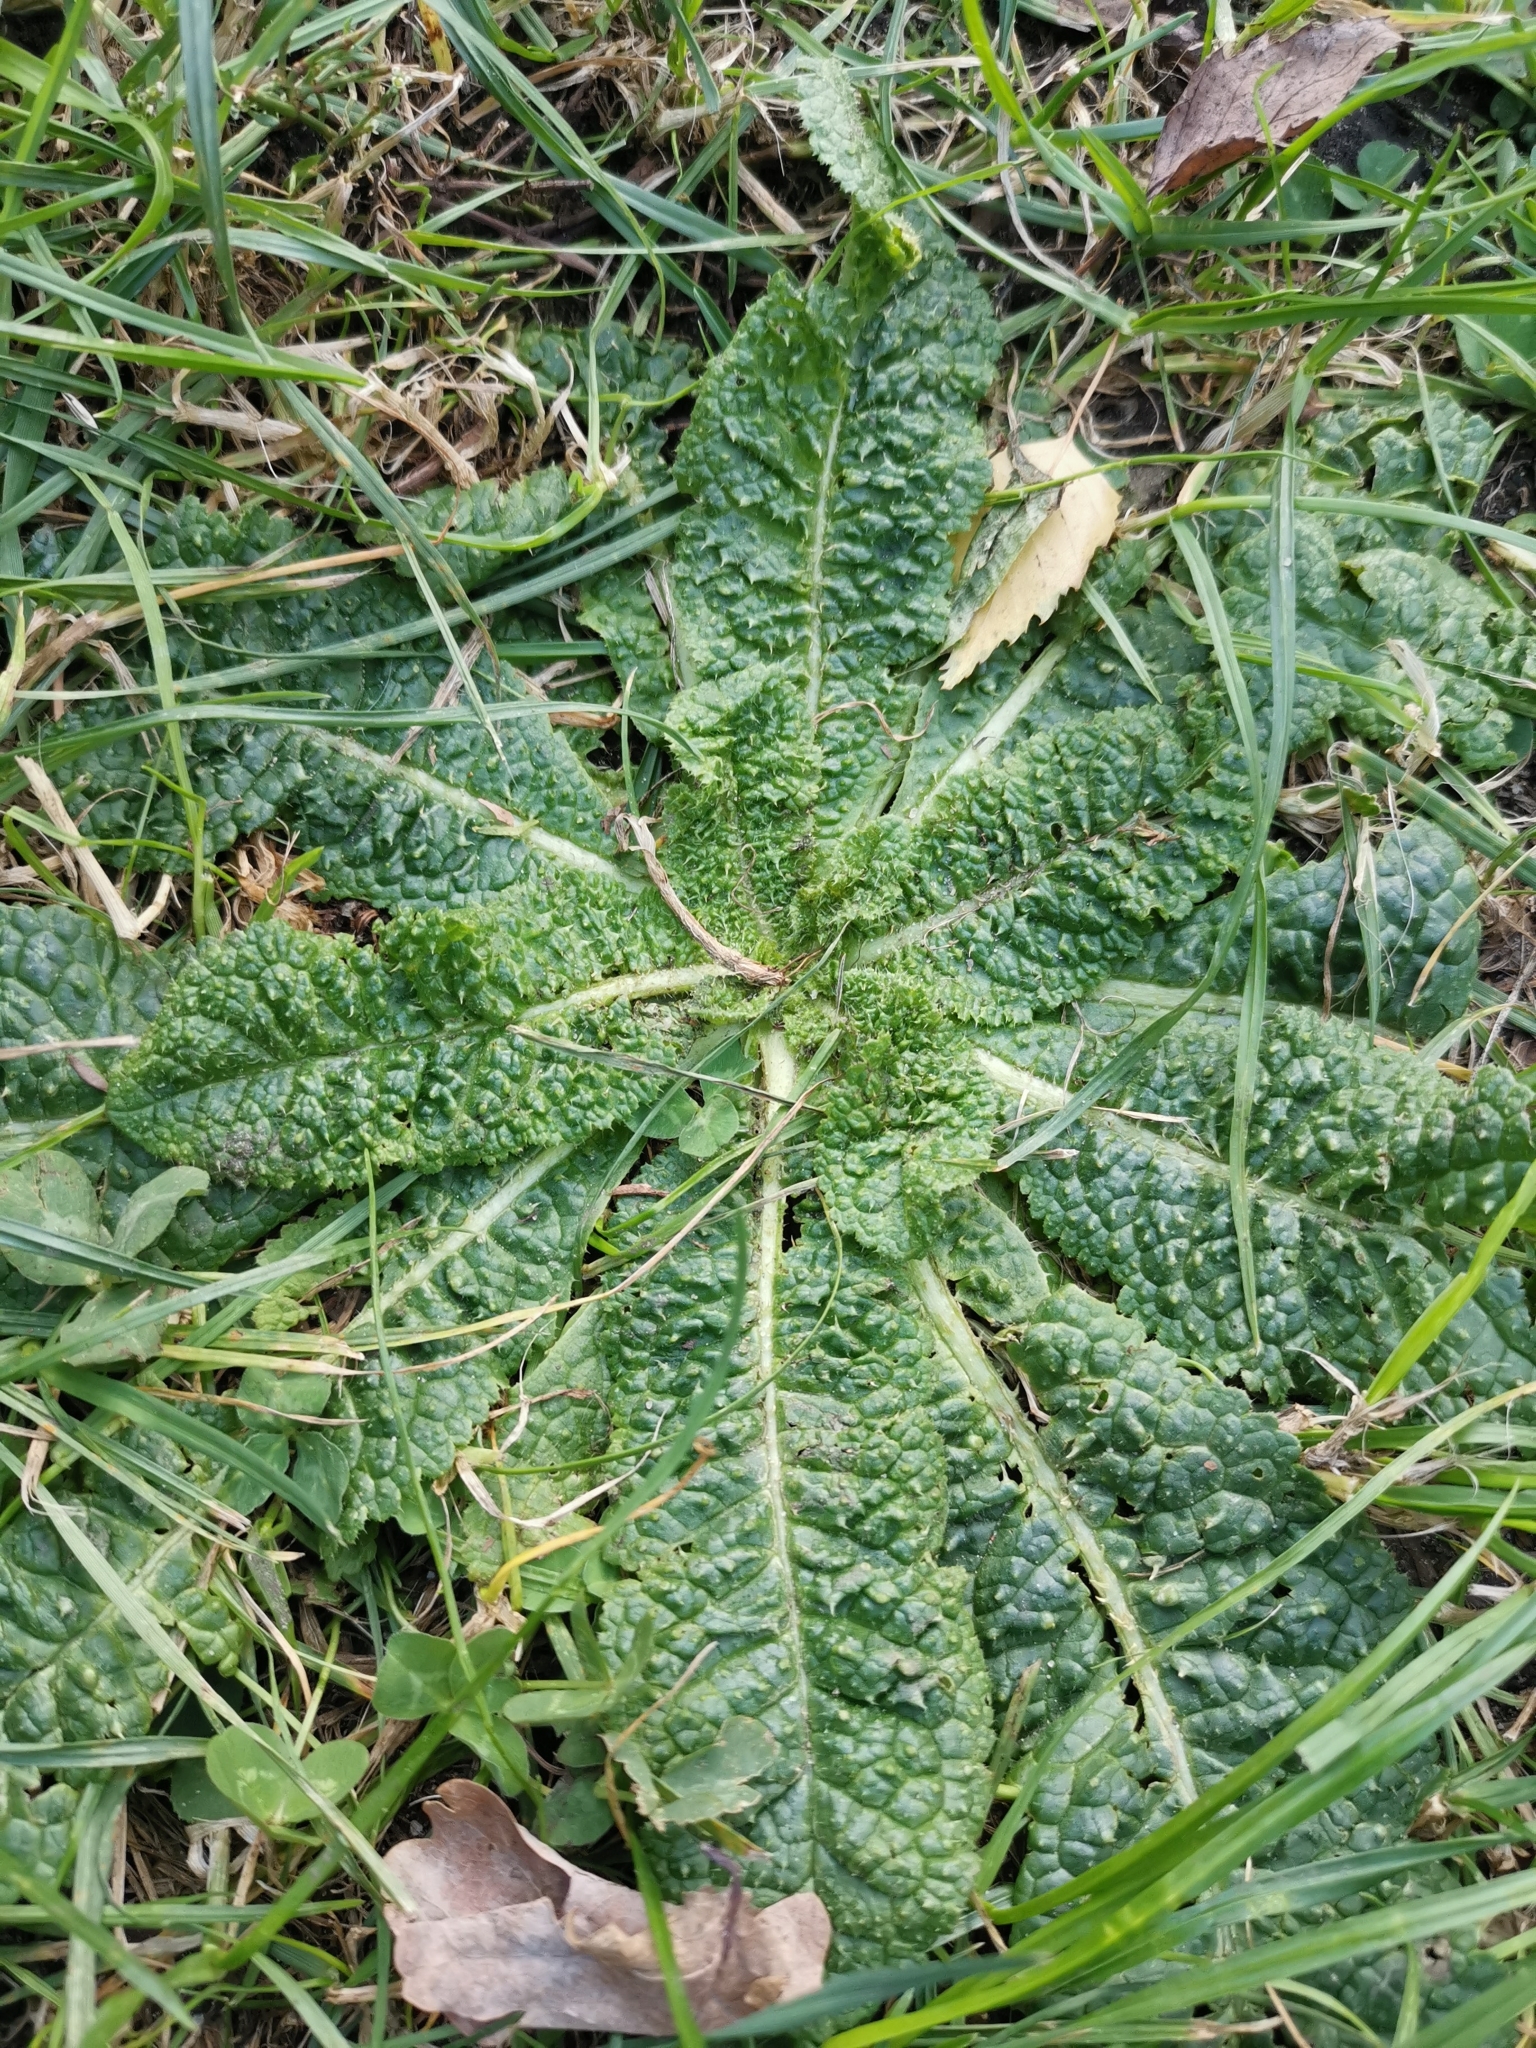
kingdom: Plantae
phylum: Tracheophyta
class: Magnoliopsida
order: Dipsacales
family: Caprifoliaceae
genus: Dipsacus
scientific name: Dipsacus fullonum
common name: Teasel
